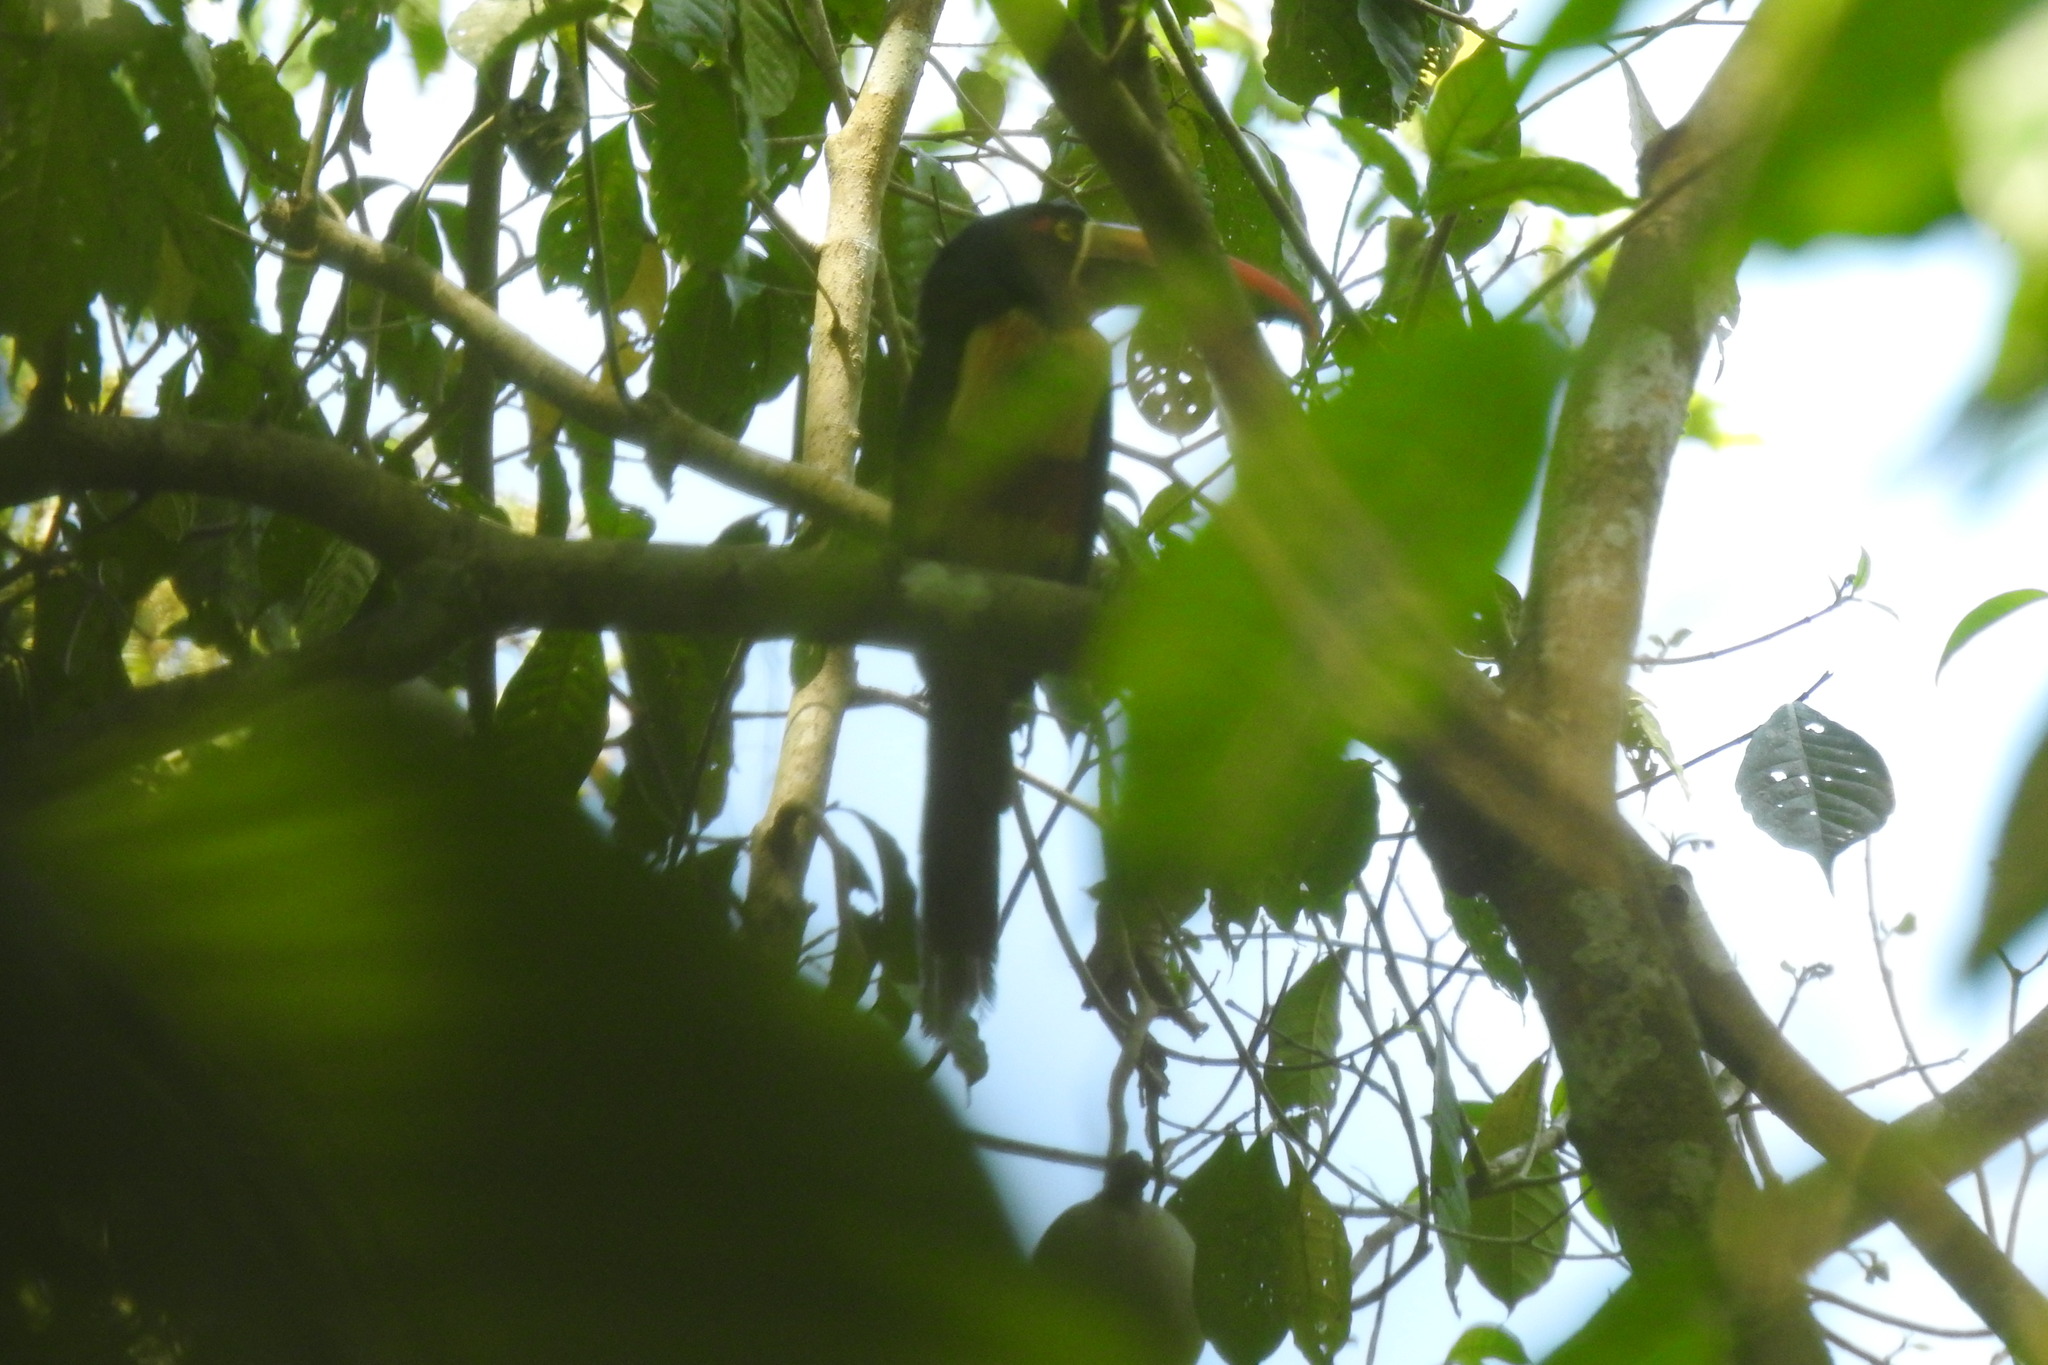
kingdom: Animalia
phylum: Chordata
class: Aves
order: Piciformes
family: Ramphastidae
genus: Pteroglossus
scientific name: Pteroglossus frantzii
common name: Fiery-billed aracari
